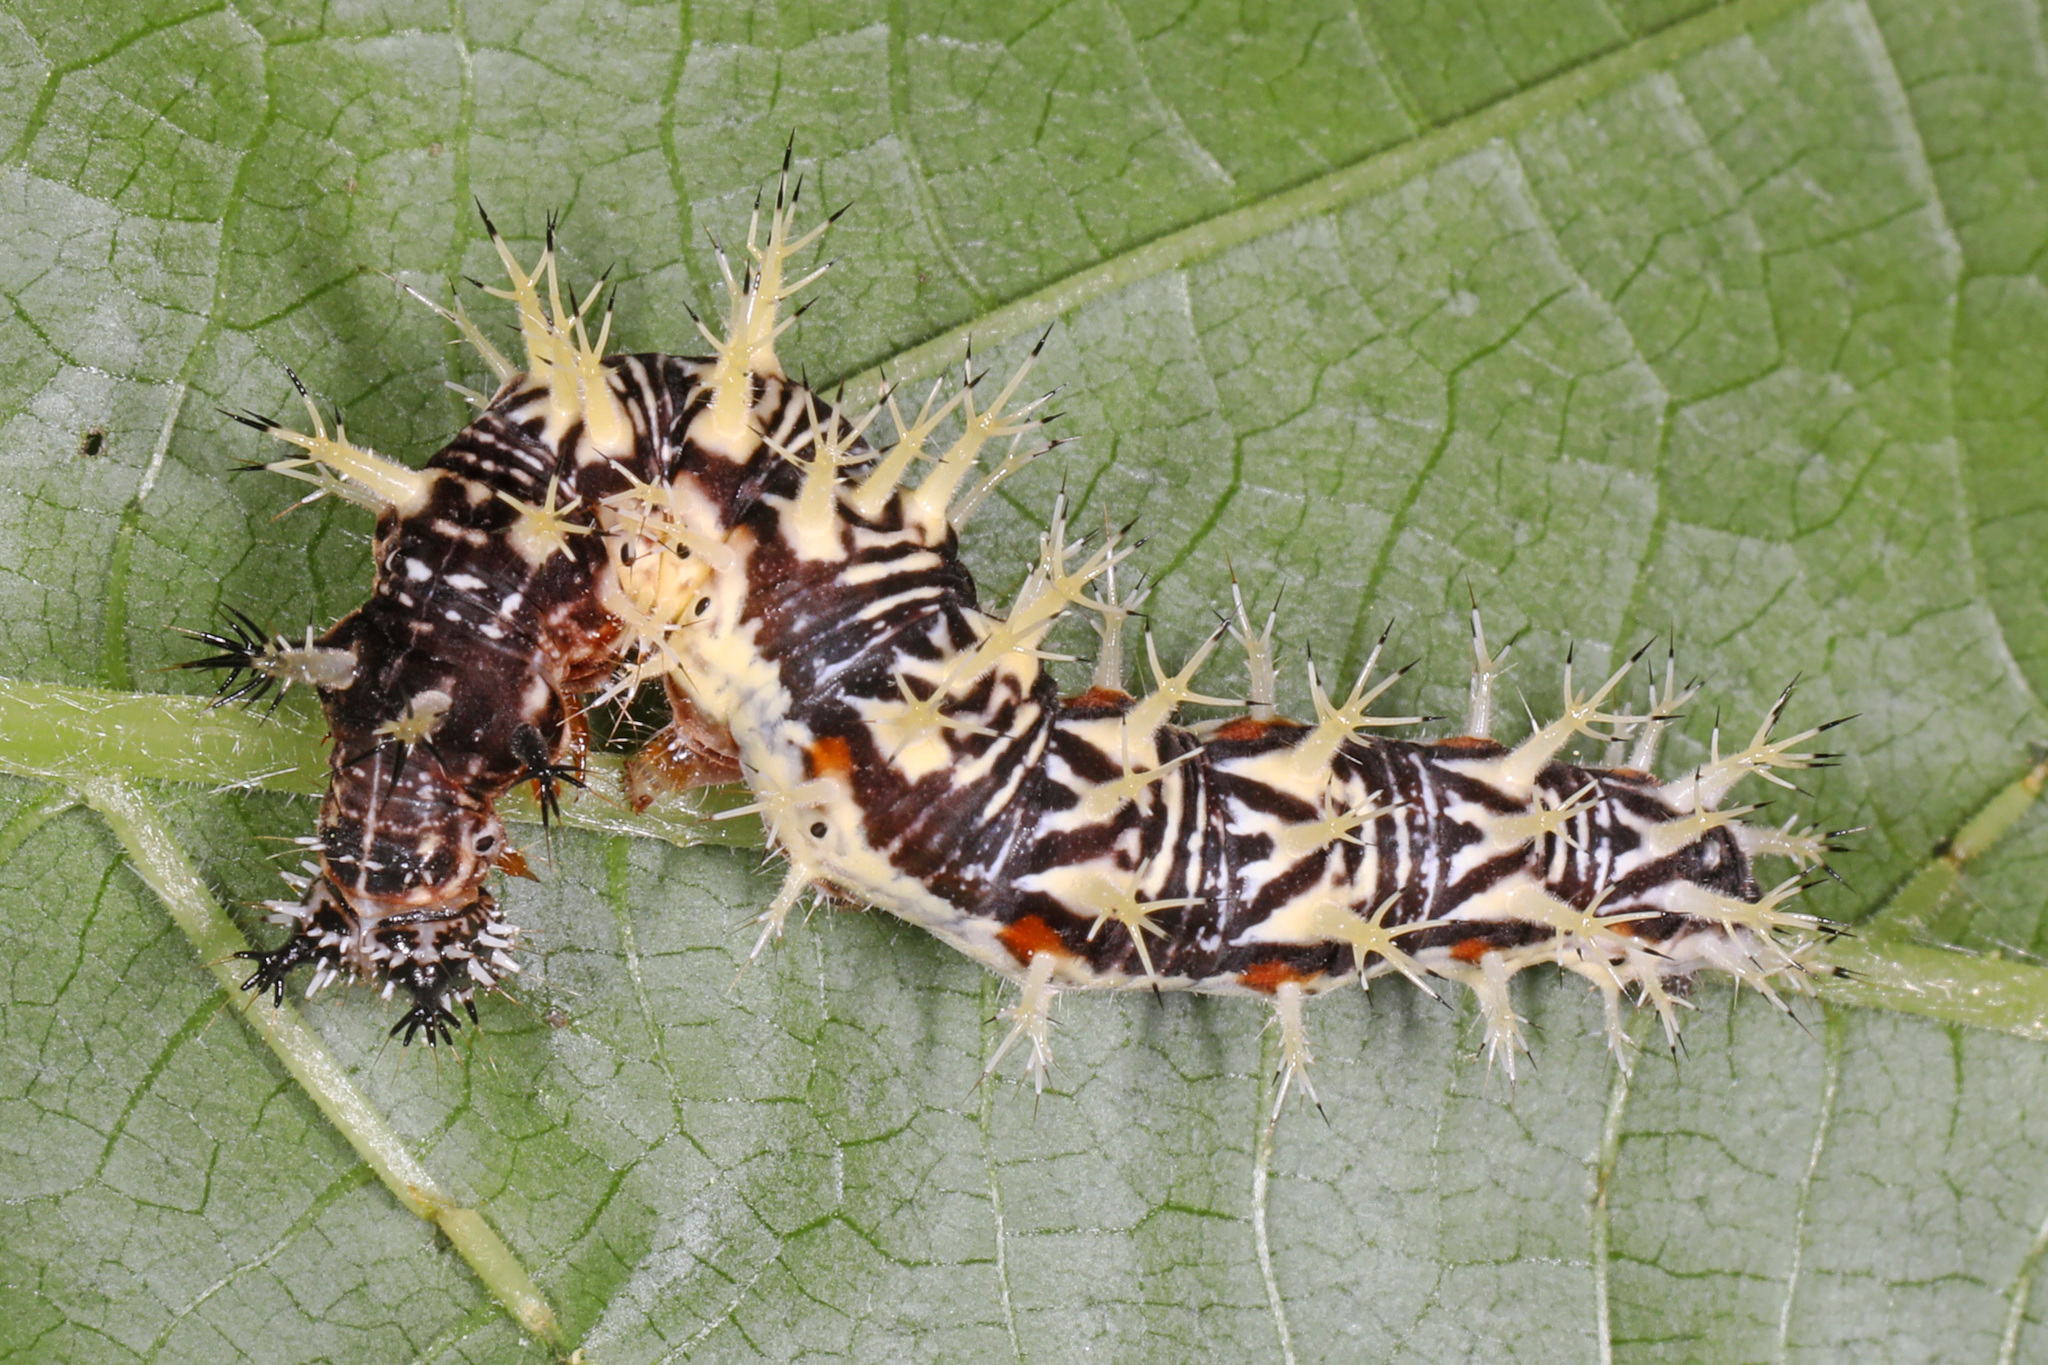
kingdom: Animalia
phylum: Arthropoda
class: Insecta
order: Lepidoptera
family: Nymphalidae
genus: Polygonia
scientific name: Polygonia comma
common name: Eastern comma
